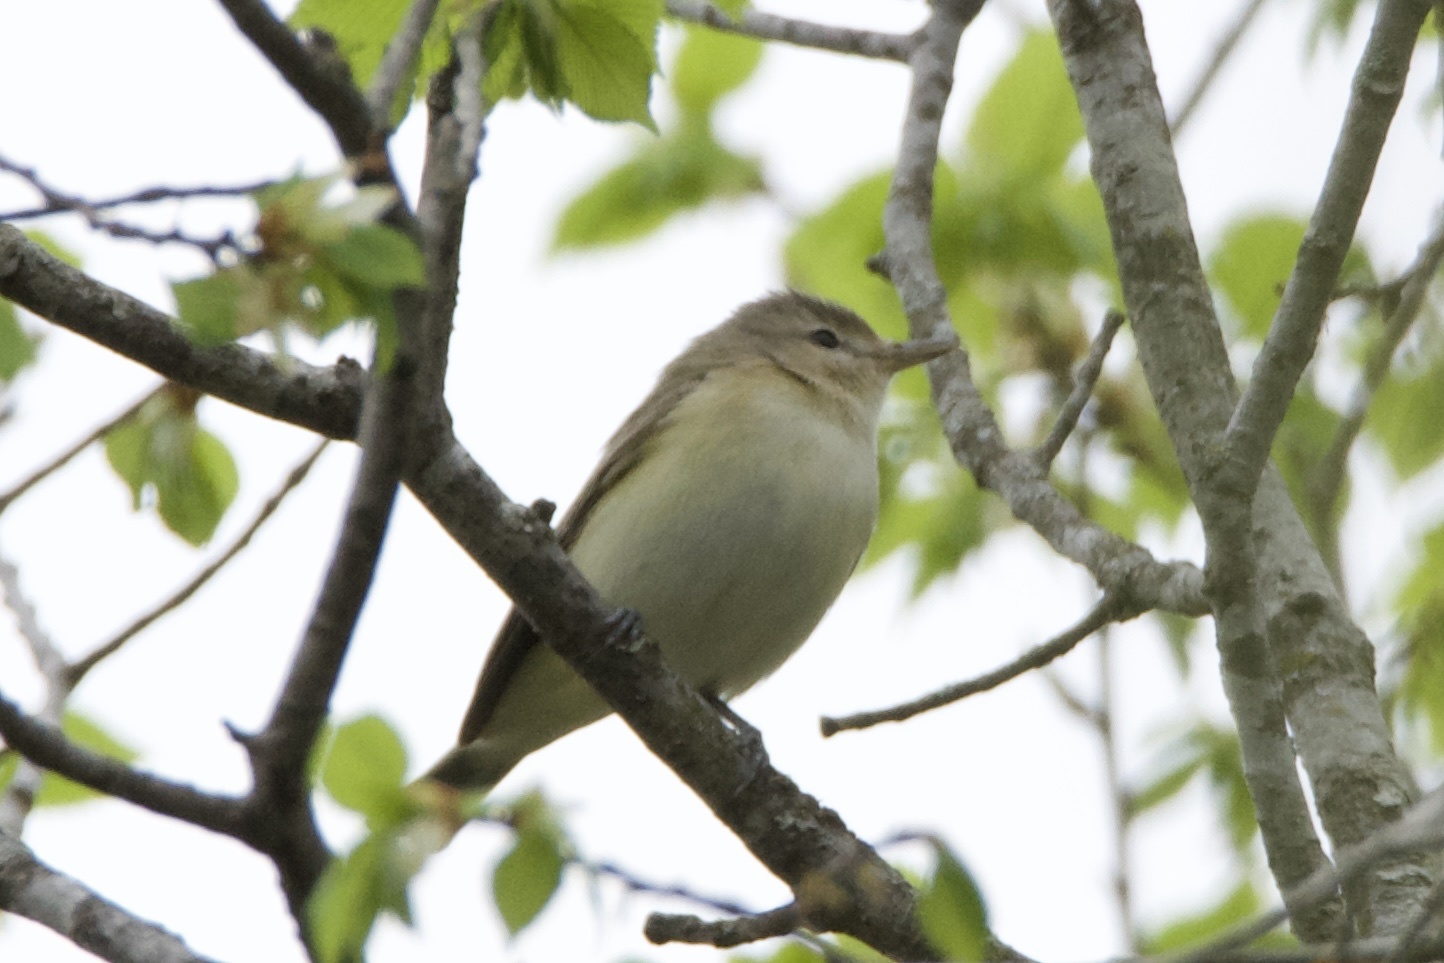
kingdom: Animalia
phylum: Chordata
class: Aves
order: Passeriformes
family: Vireonidae
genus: Vireo
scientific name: Vireo gilvus
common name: Warbling vireo
